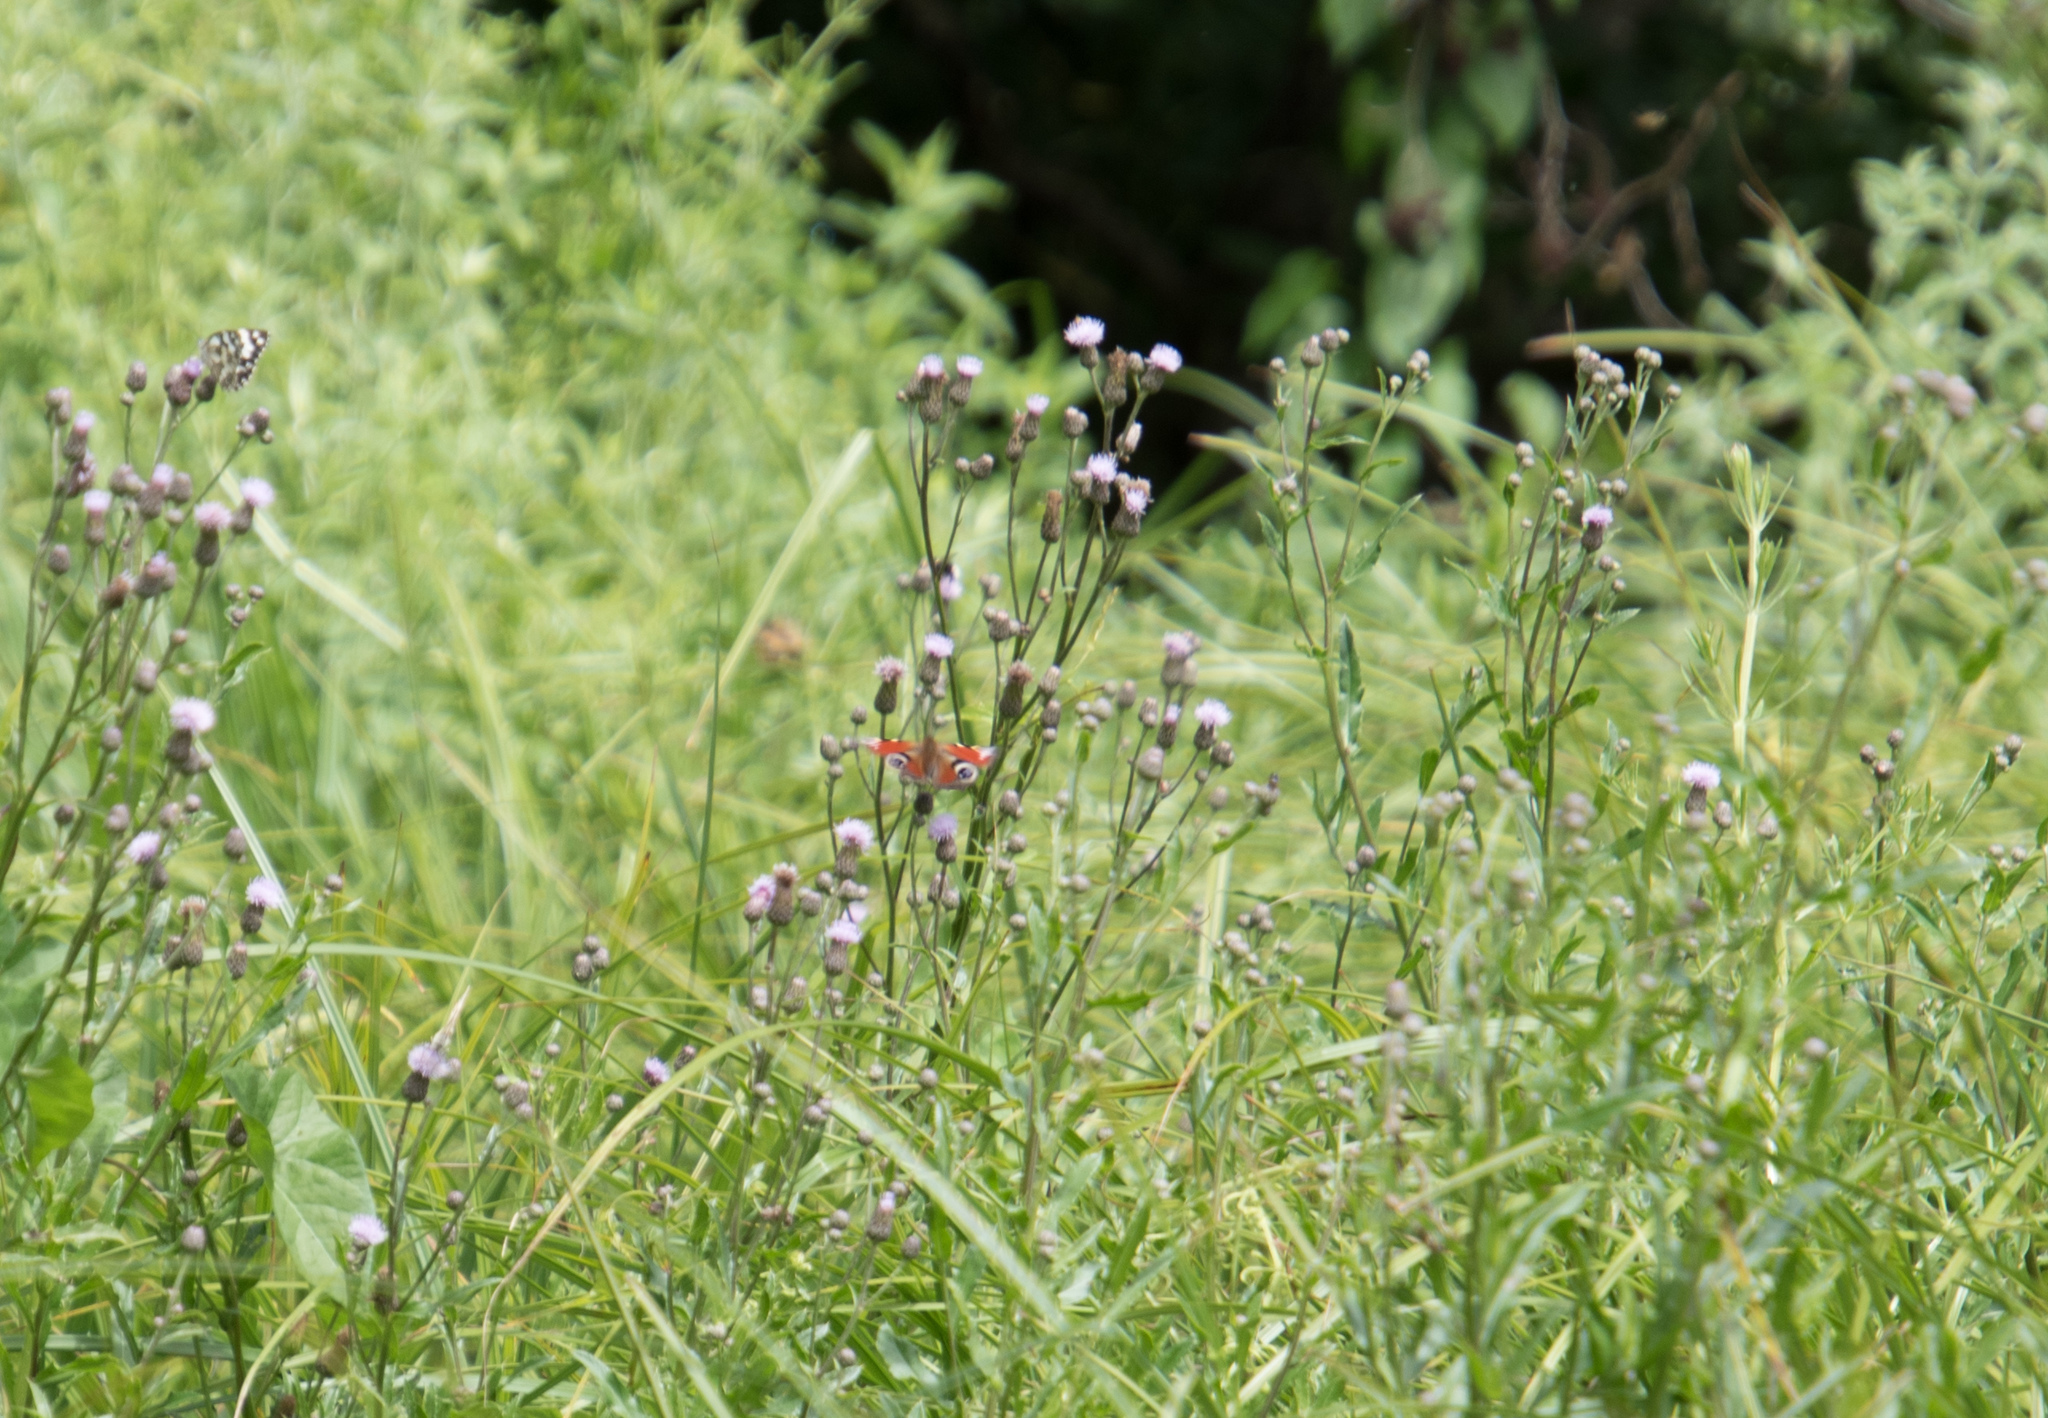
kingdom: Animalia
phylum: Arthropoda
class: Insecta
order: Lepidoptera
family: Nymphalidae
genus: Aglais
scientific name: Aglais io
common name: Peacock
